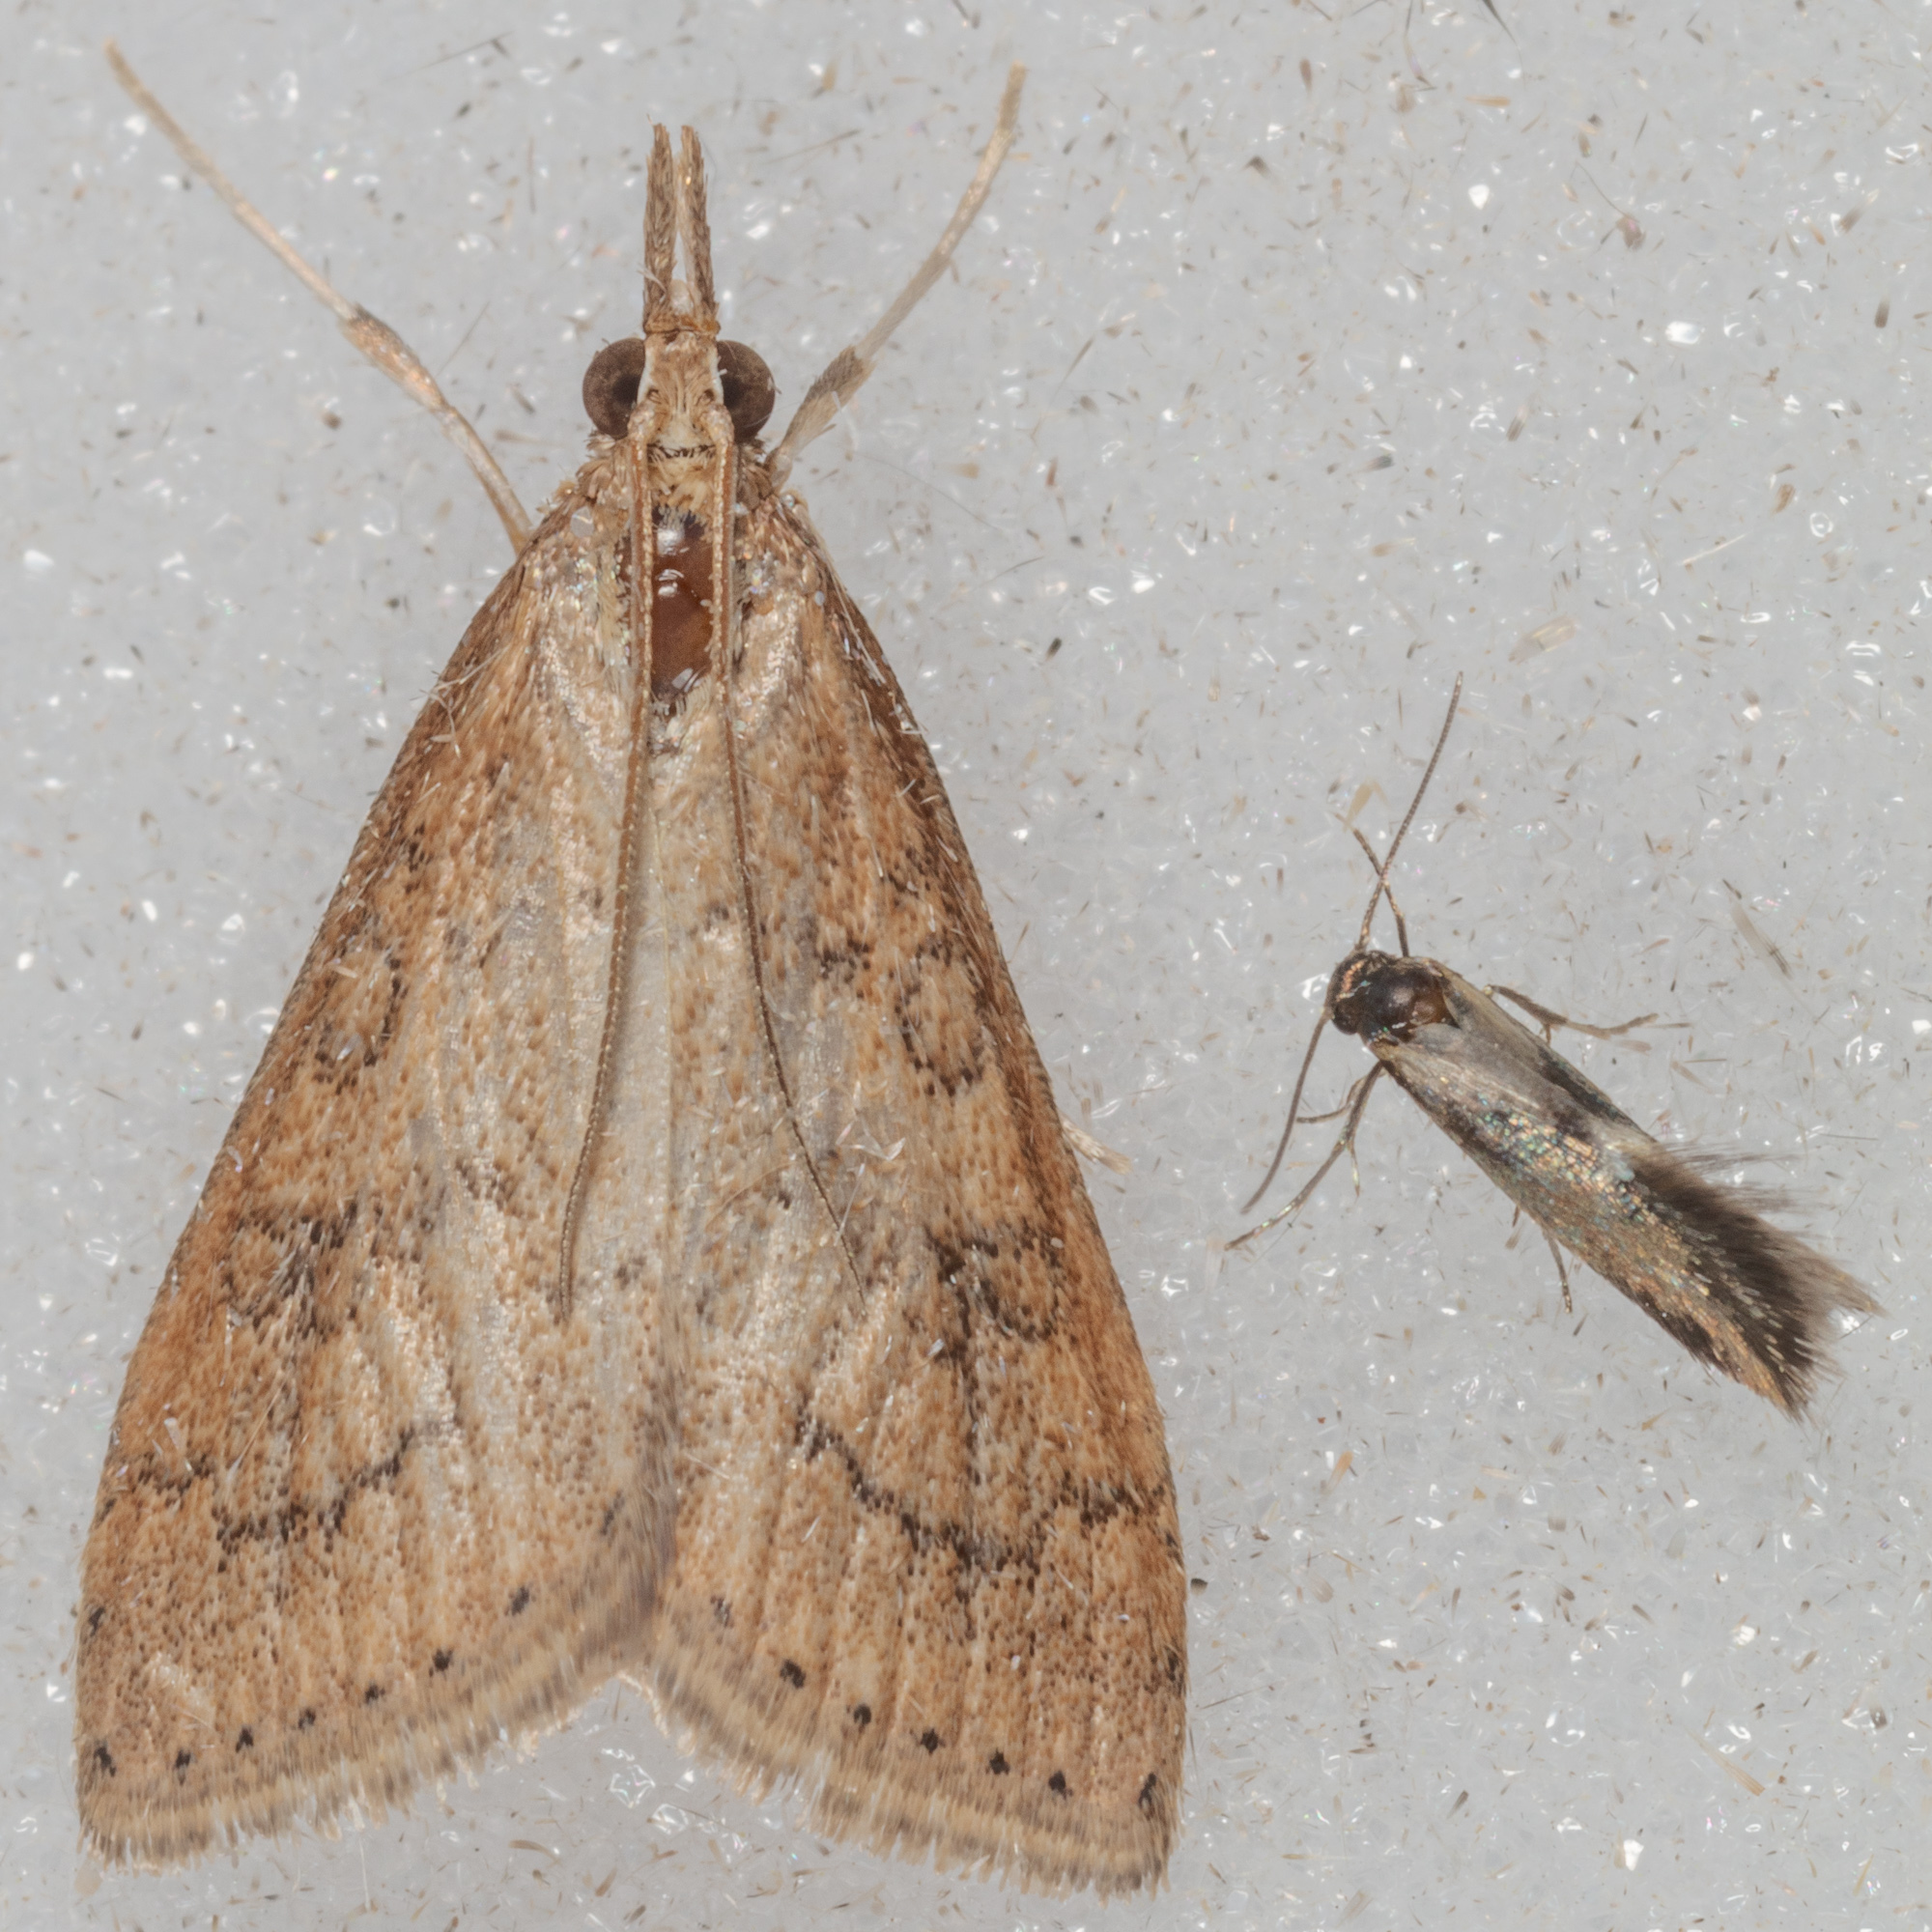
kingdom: Animalia
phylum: Arthropoda
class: Insecta
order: Lepidoptera
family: Crambidae
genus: Udea
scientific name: Udea rubigalis
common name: Celery leaftier moth
